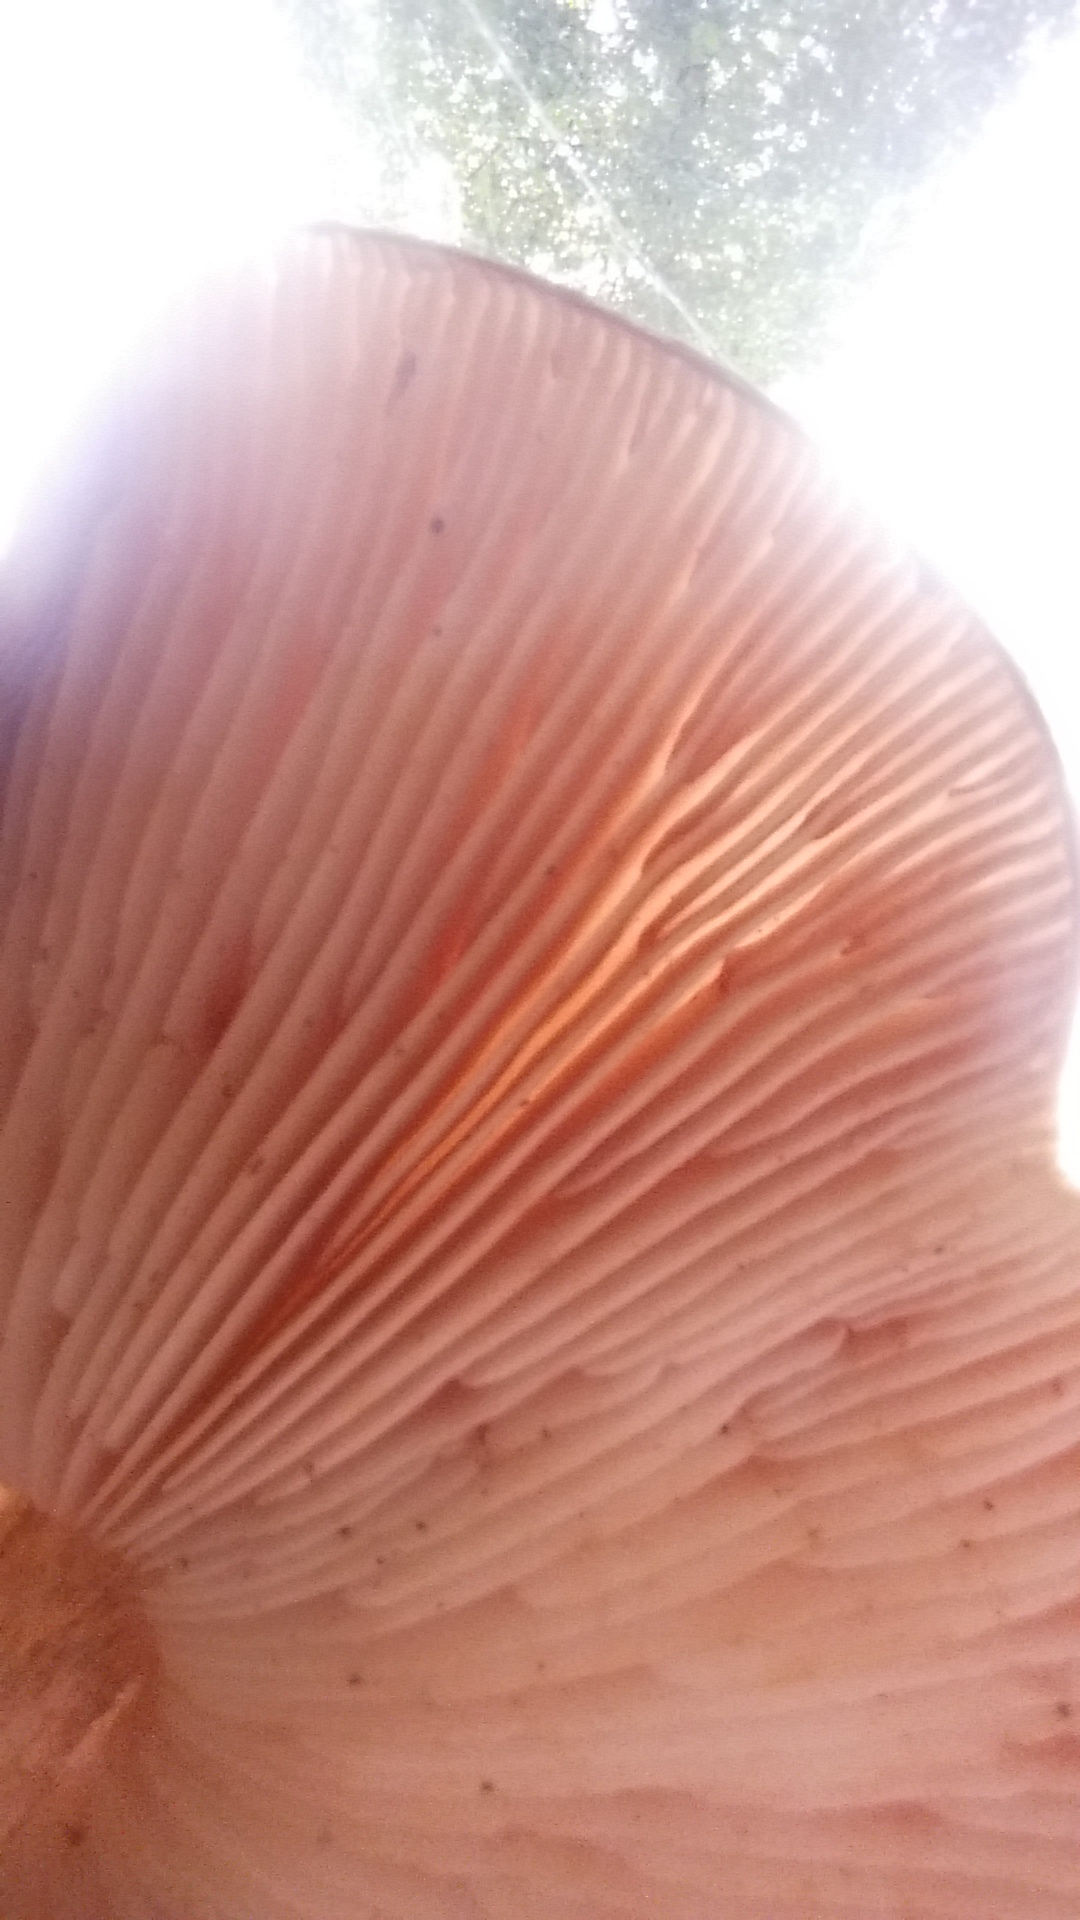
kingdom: Fungi
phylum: Basidiomycota
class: Agaricomycetes
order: Agaricales
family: Pluteaceae
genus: Pluteus
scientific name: Pluteus cervinus
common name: Deer shield
